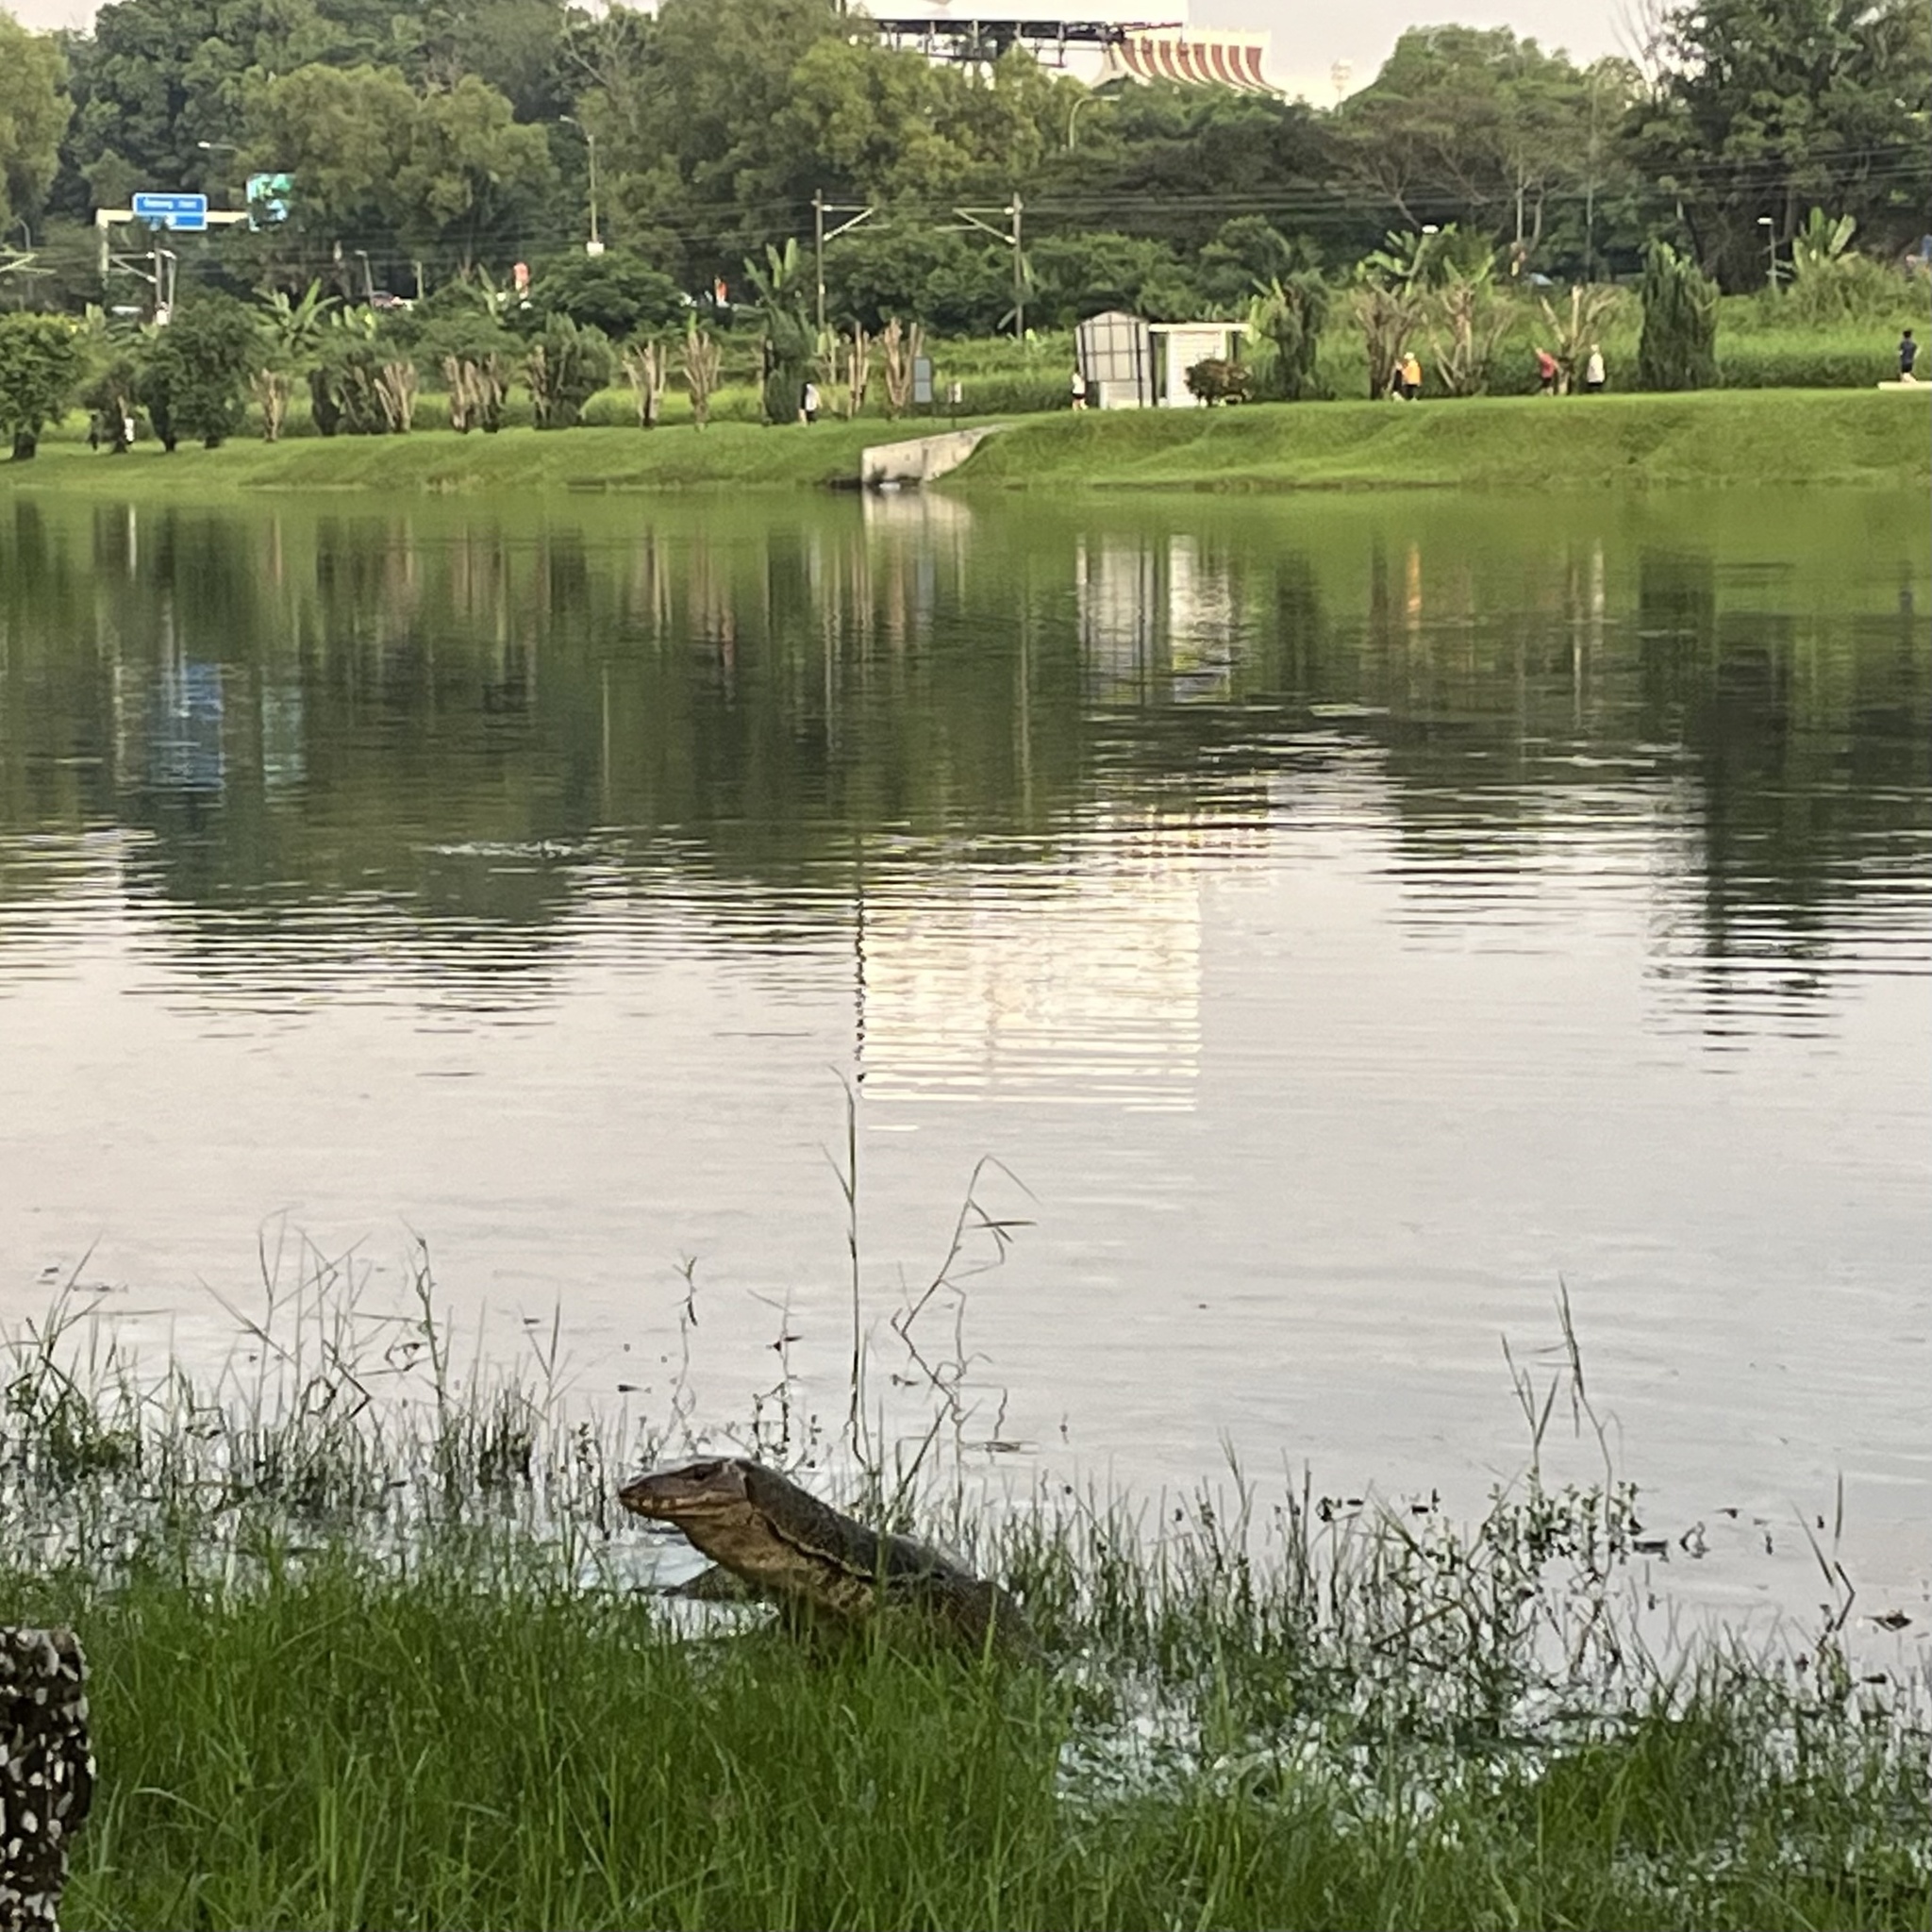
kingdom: Animalia
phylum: Chordata
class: Squamata
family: Varanidae
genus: Varanus
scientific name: Varanus salvator
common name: Common water monitor
